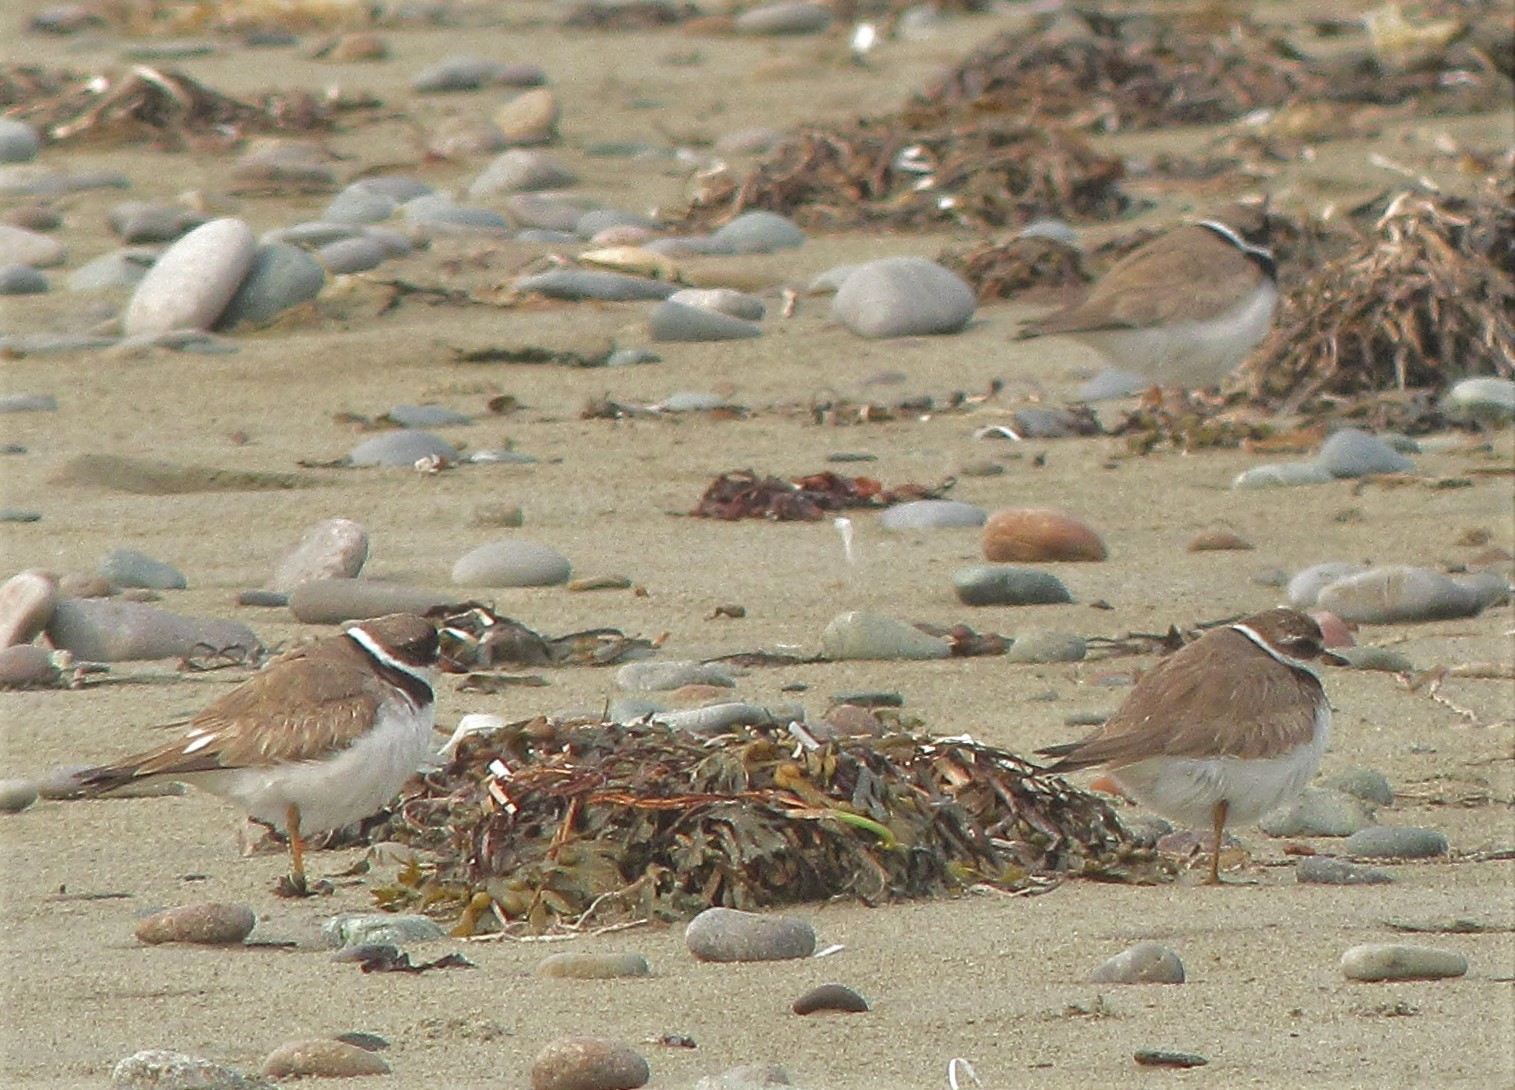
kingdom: Animalia
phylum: Chordata
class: Aves
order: Charadriiformes
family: Charadriidae
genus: Charadrius
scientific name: Charadrius semipalmatus
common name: Semipalmated plover
